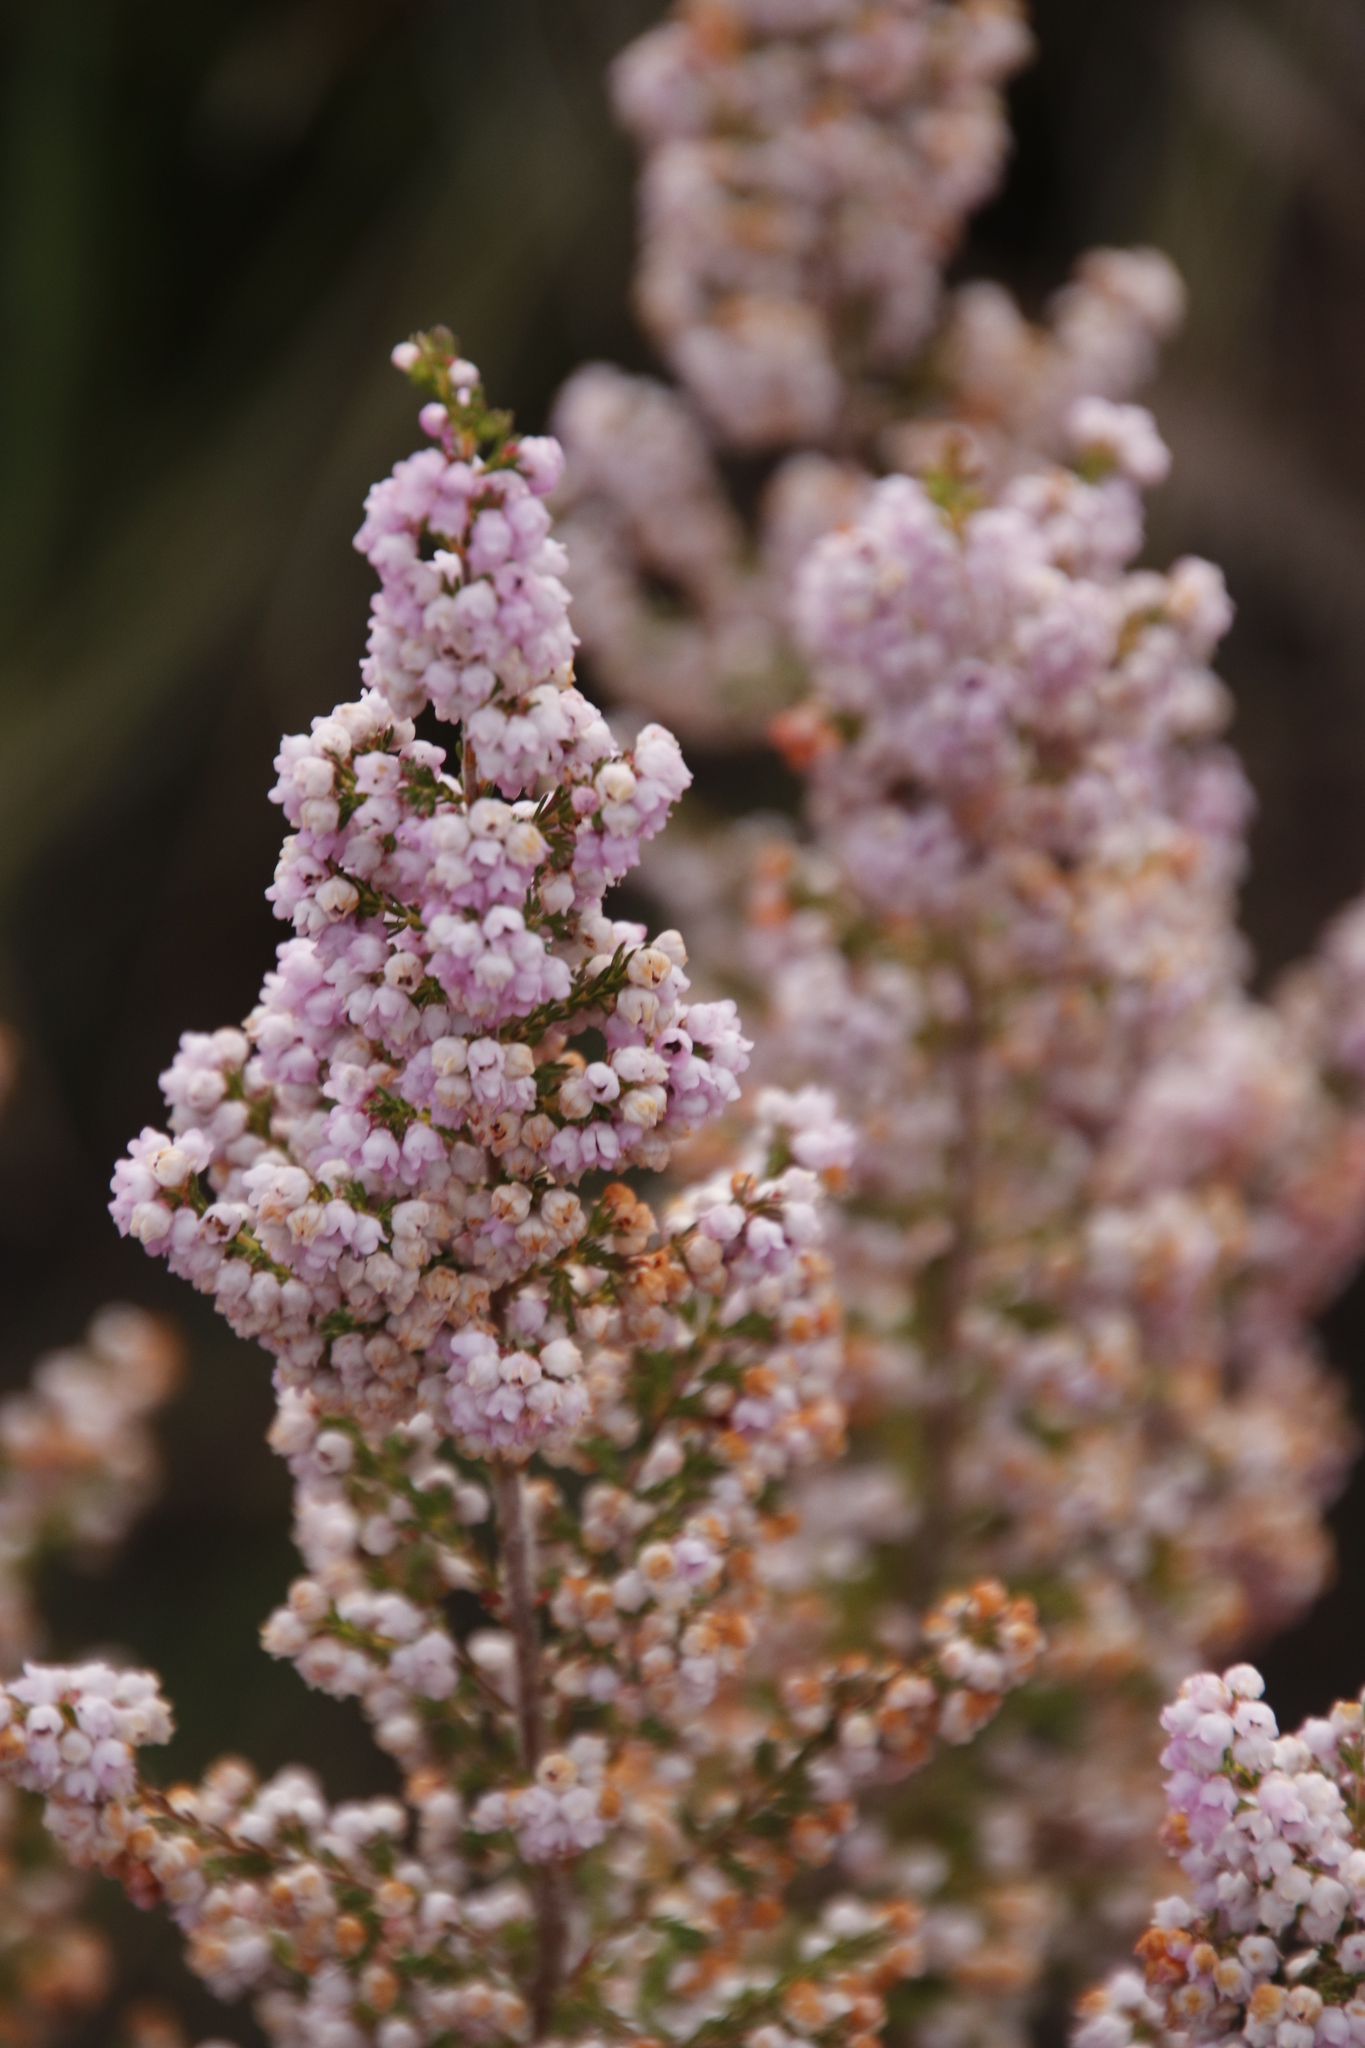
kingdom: Plantae
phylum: Tracheophyta
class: Magnoliopsida
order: Ericales
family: Ericaceae
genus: Erica
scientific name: Erica mauritanica
